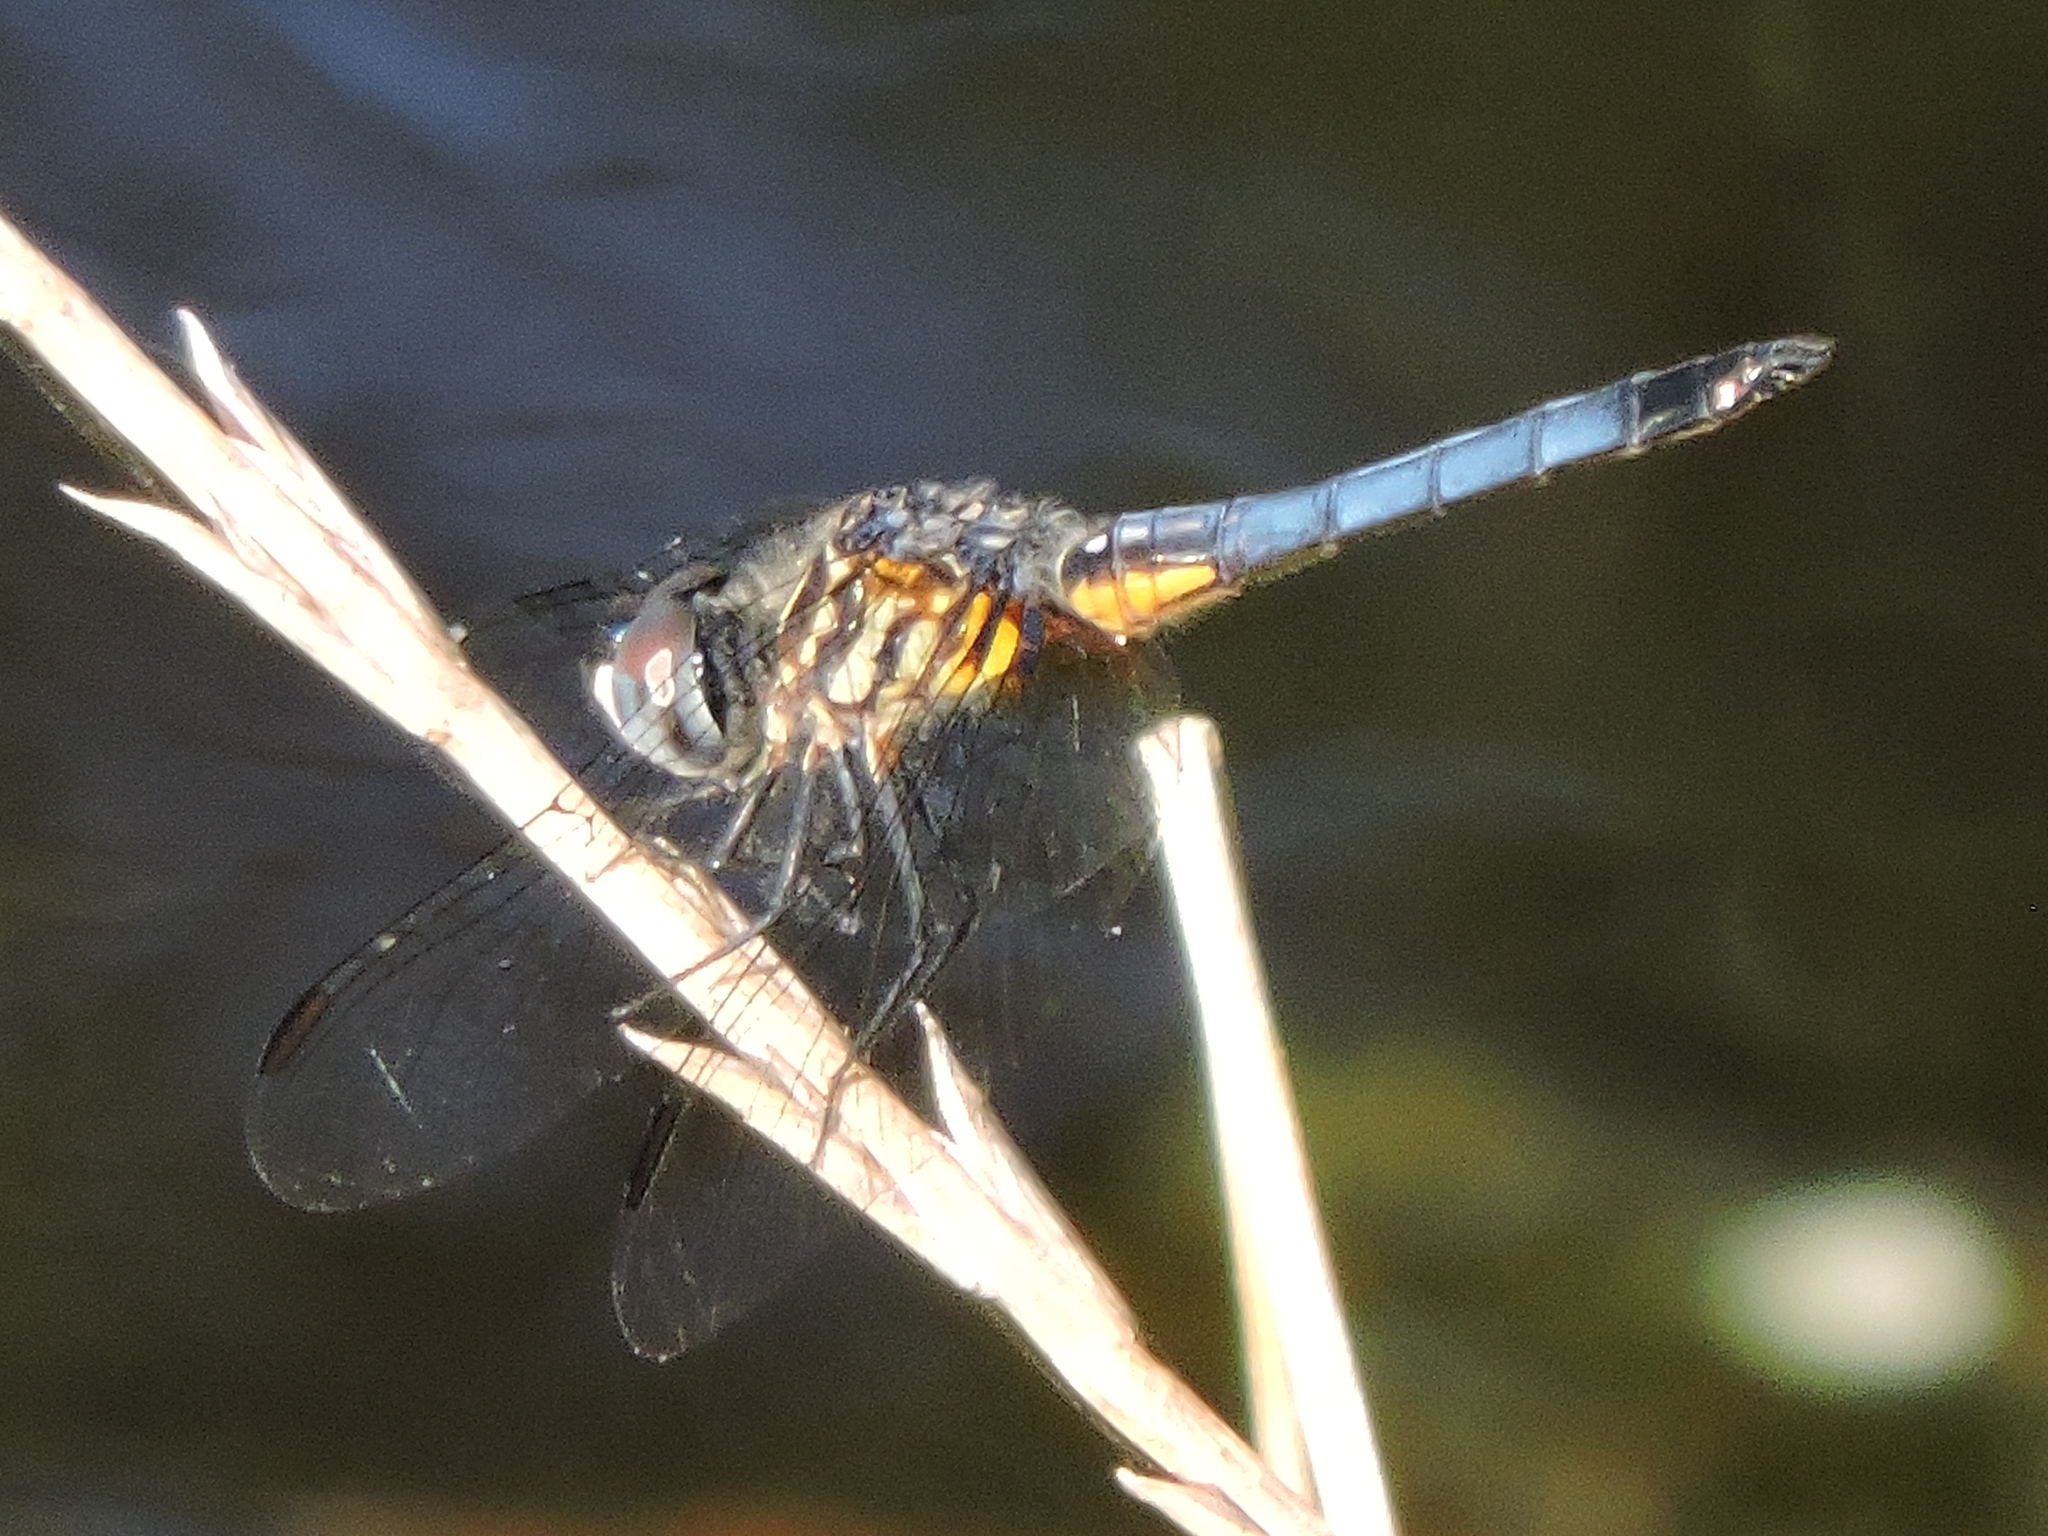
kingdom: Animalia
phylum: Arthropoda
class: Insecta
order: Odonata
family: Libellulidae
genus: Pachydiplax
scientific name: Pachydiplax longipennis
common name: Blue dasher
